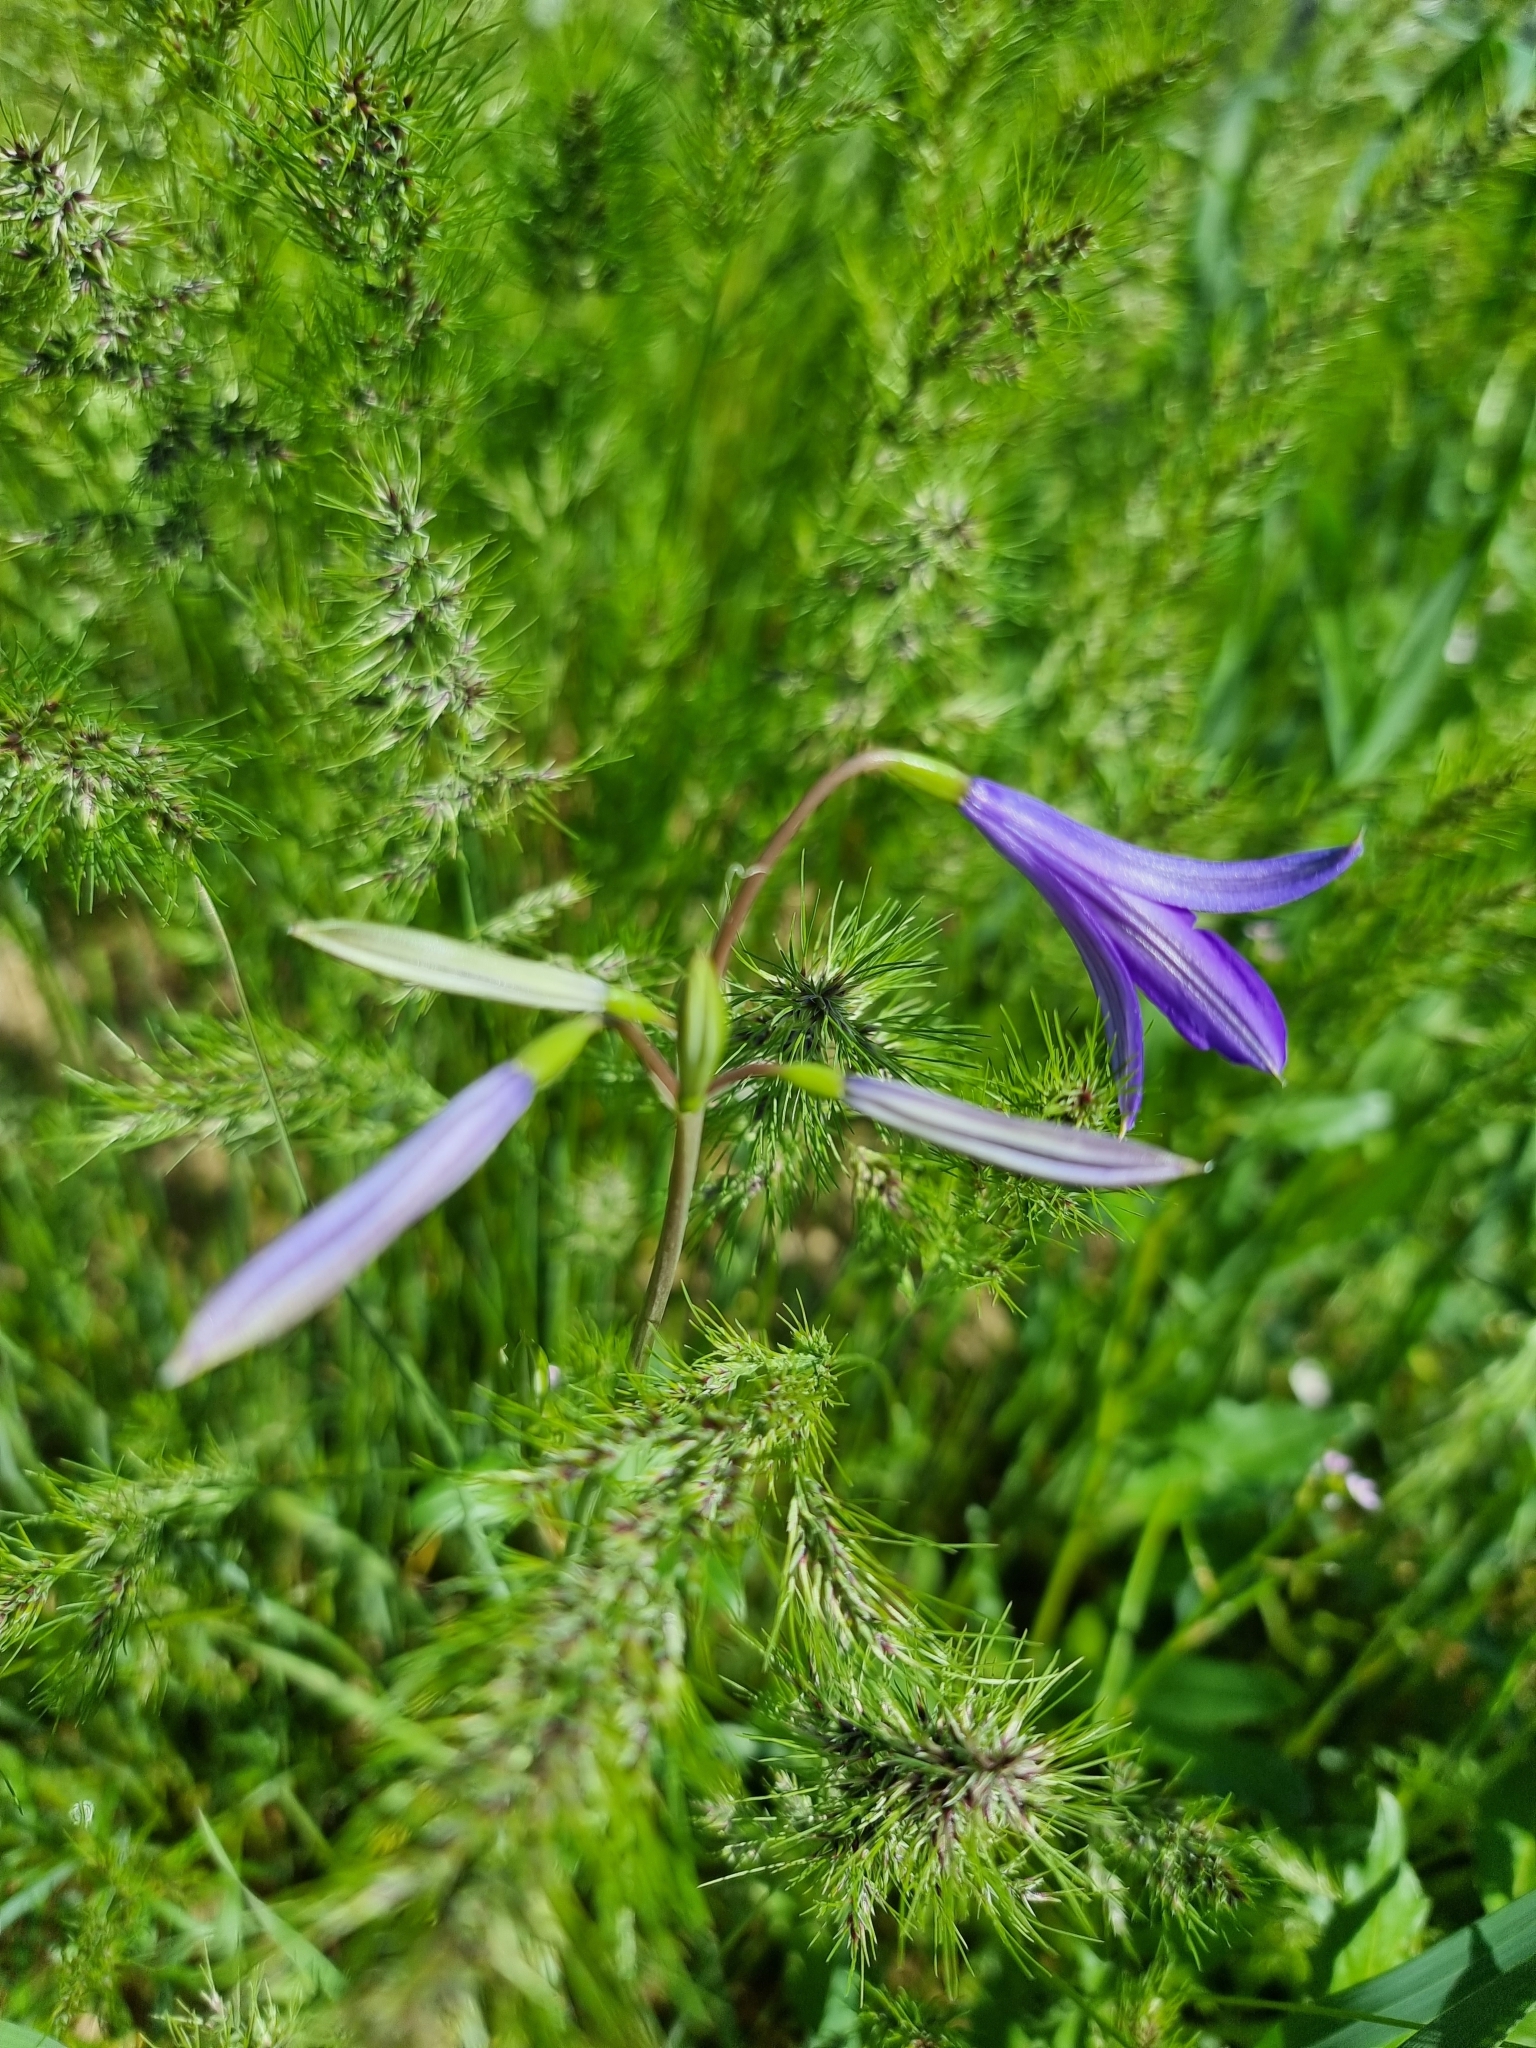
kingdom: Plantae
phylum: Tracheophyta
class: Liliopsida
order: Asparagales
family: Ixioliriaceae
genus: Ixiolirion
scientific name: Ixiolirion tataricum
